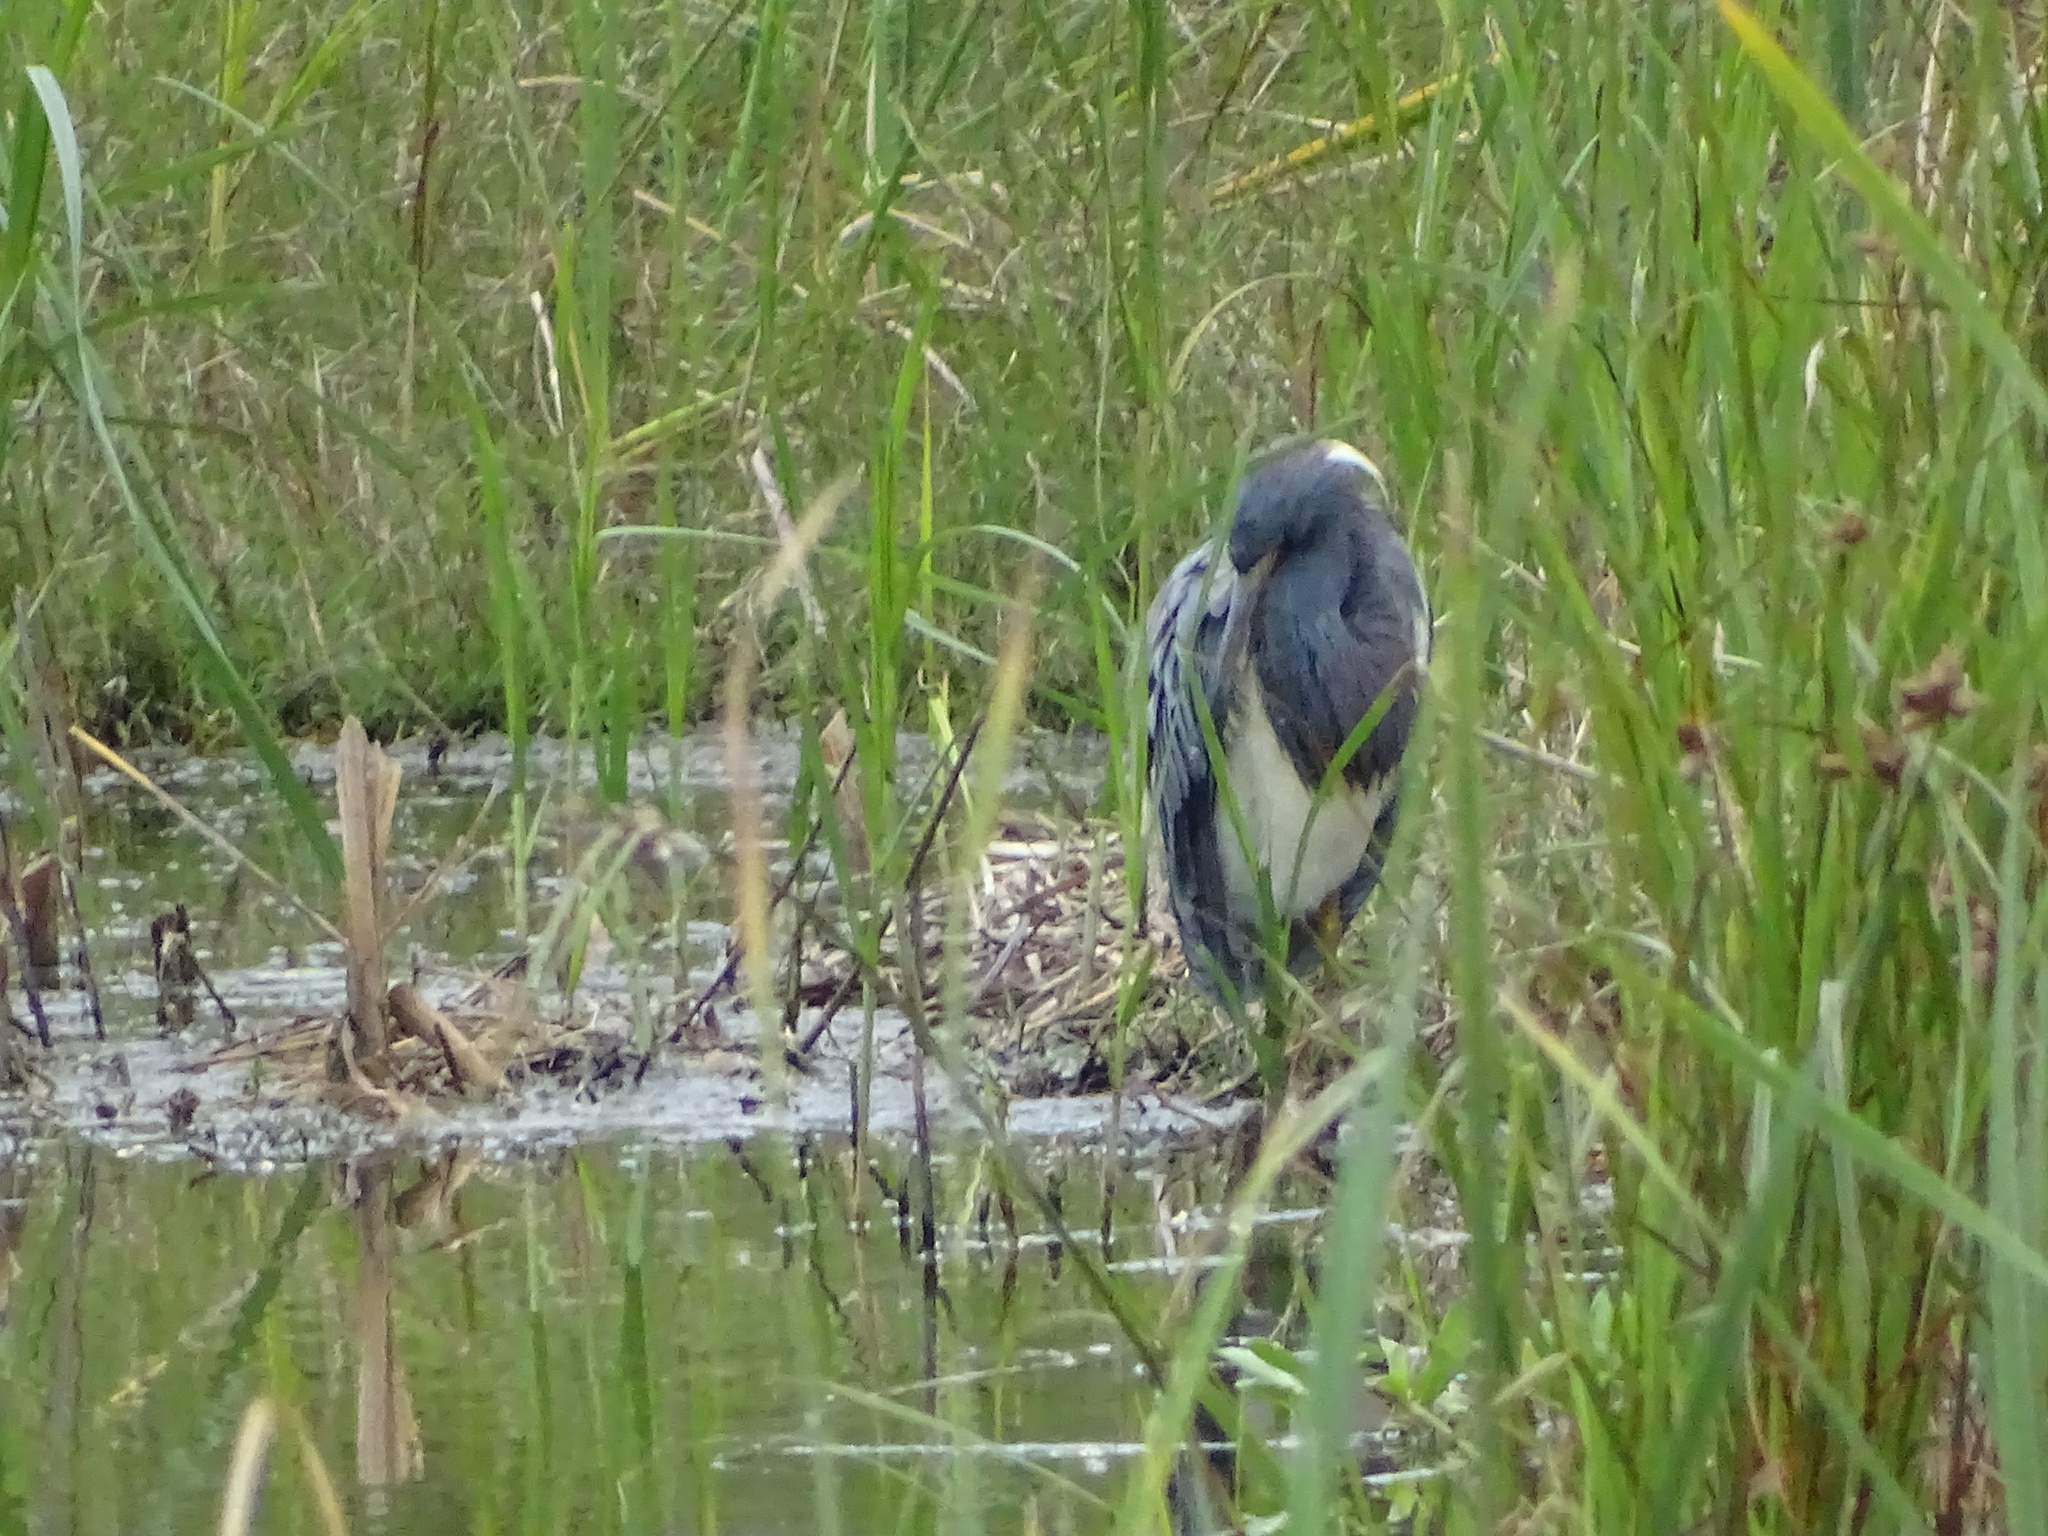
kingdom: Animalia
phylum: Chordata
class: Aves
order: Pelecaniformes
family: Ardeidae
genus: Egretta
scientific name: Egretta tricolor
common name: Tricolored heron
